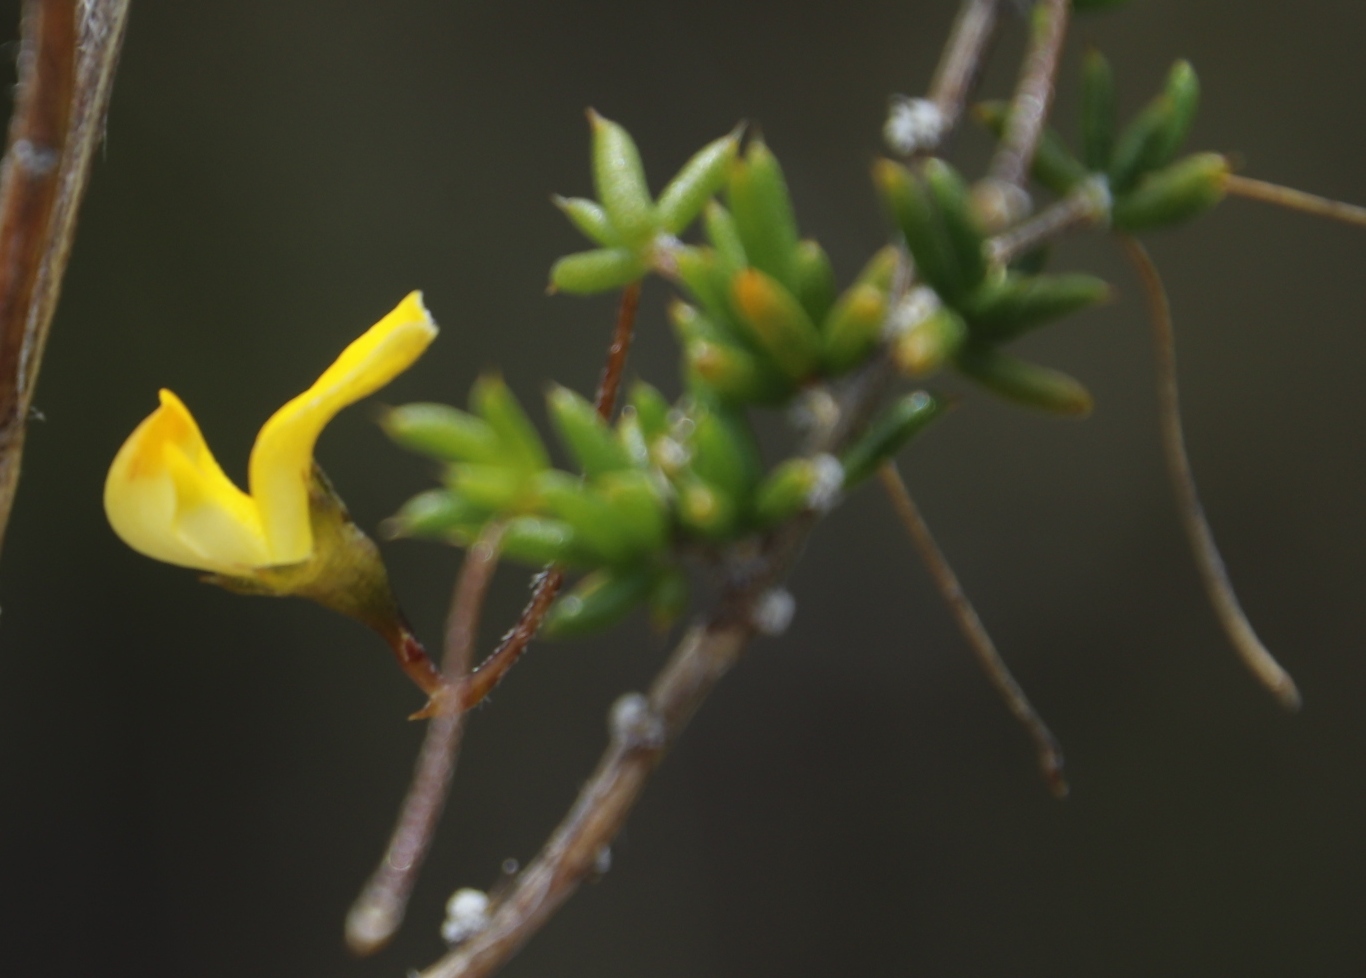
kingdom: Plantae
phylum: Tracheophyta
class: Magnoliopsida
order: Fabales
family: Fabaceae
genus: Aspalathus
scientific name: Aspalathus serpens
